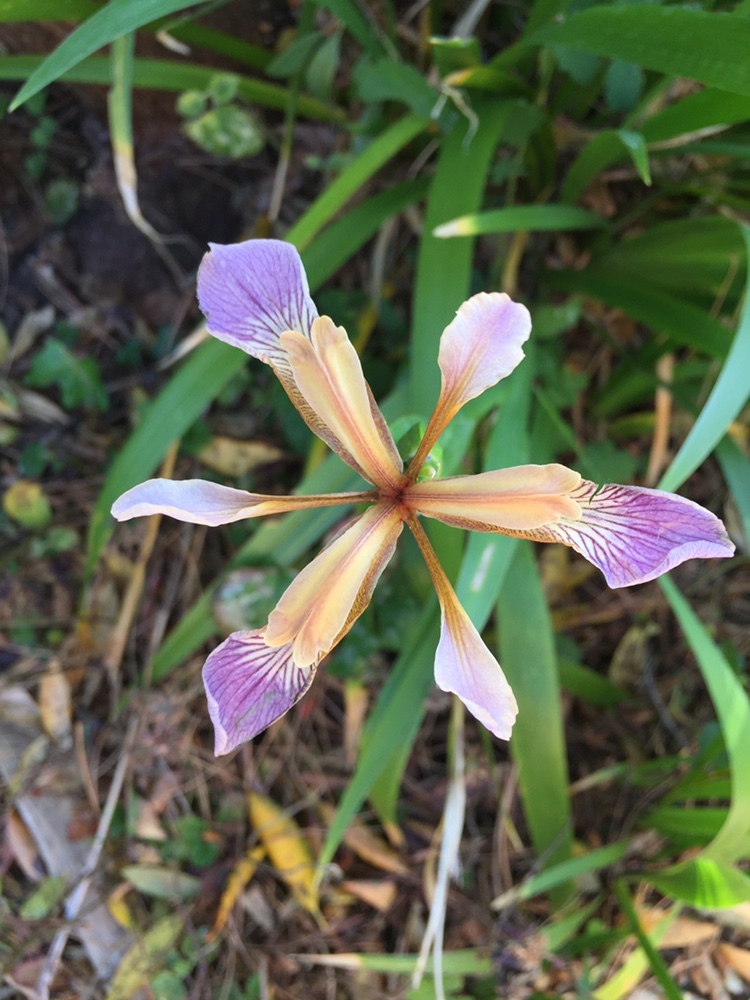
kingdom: Plantae
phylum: Tracheophyta
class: Liliopsida
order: Asparagales
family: Iridaceae
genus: Iris
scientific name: Iris foetidissima
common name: Stinking iris
